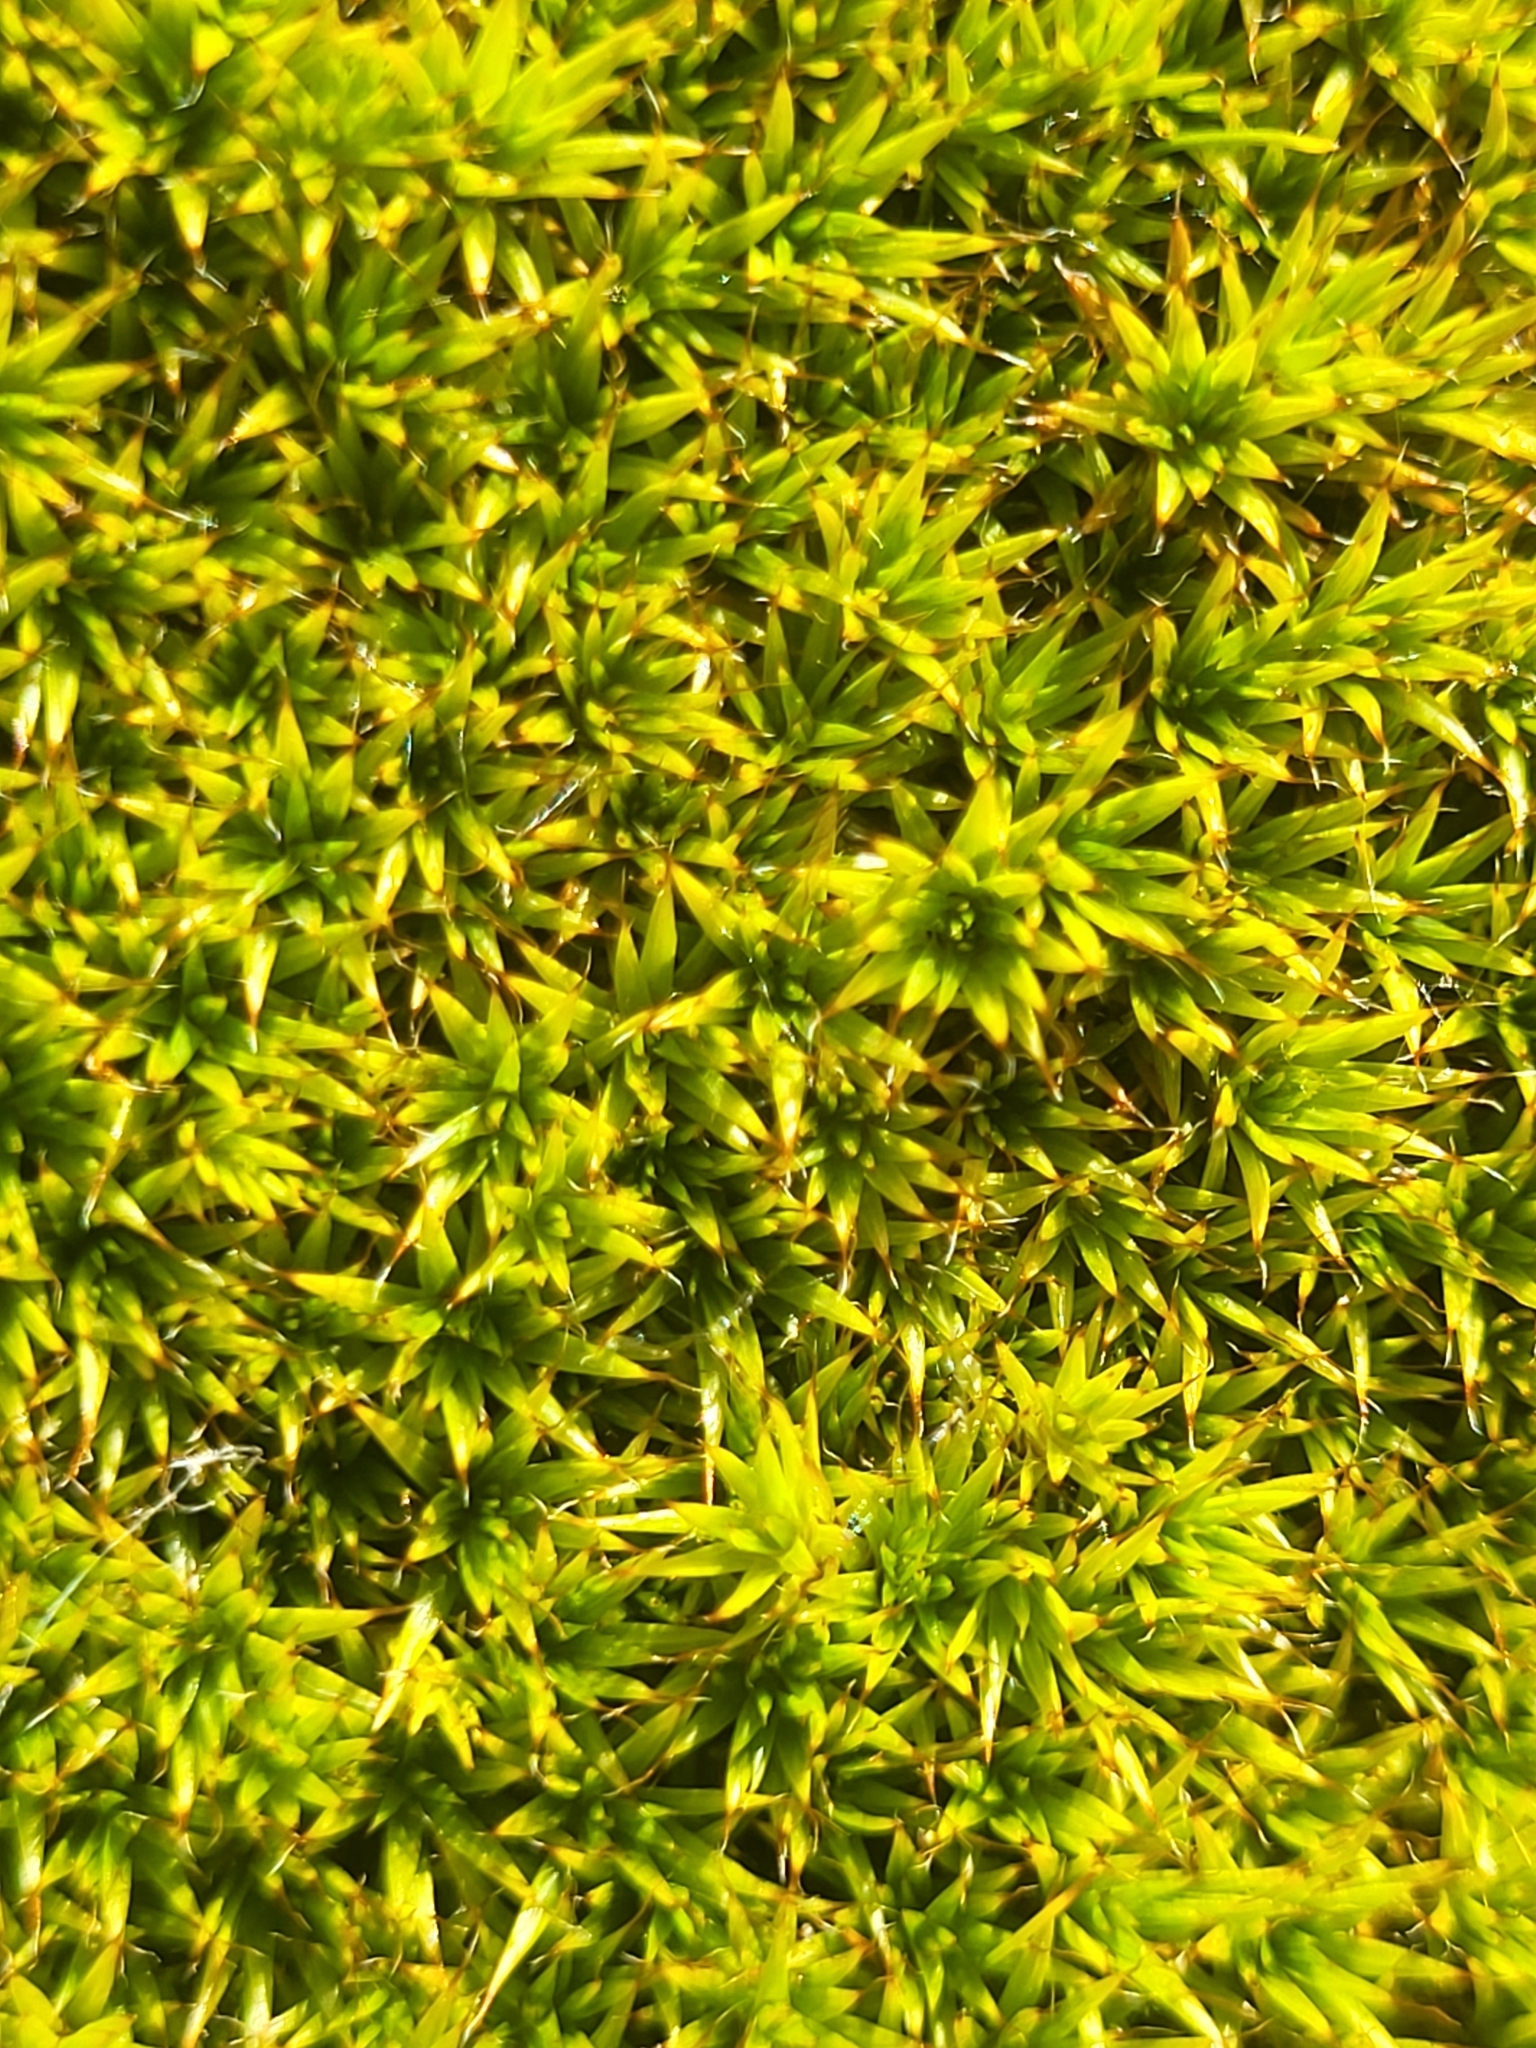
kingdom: Plantae
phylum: Bryophyta
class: Polytrichopsida
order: Polytrichales
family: Polytrichaceae
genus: Polytrichum
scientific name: Polytrichum piliferum
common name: Bristly haircap
